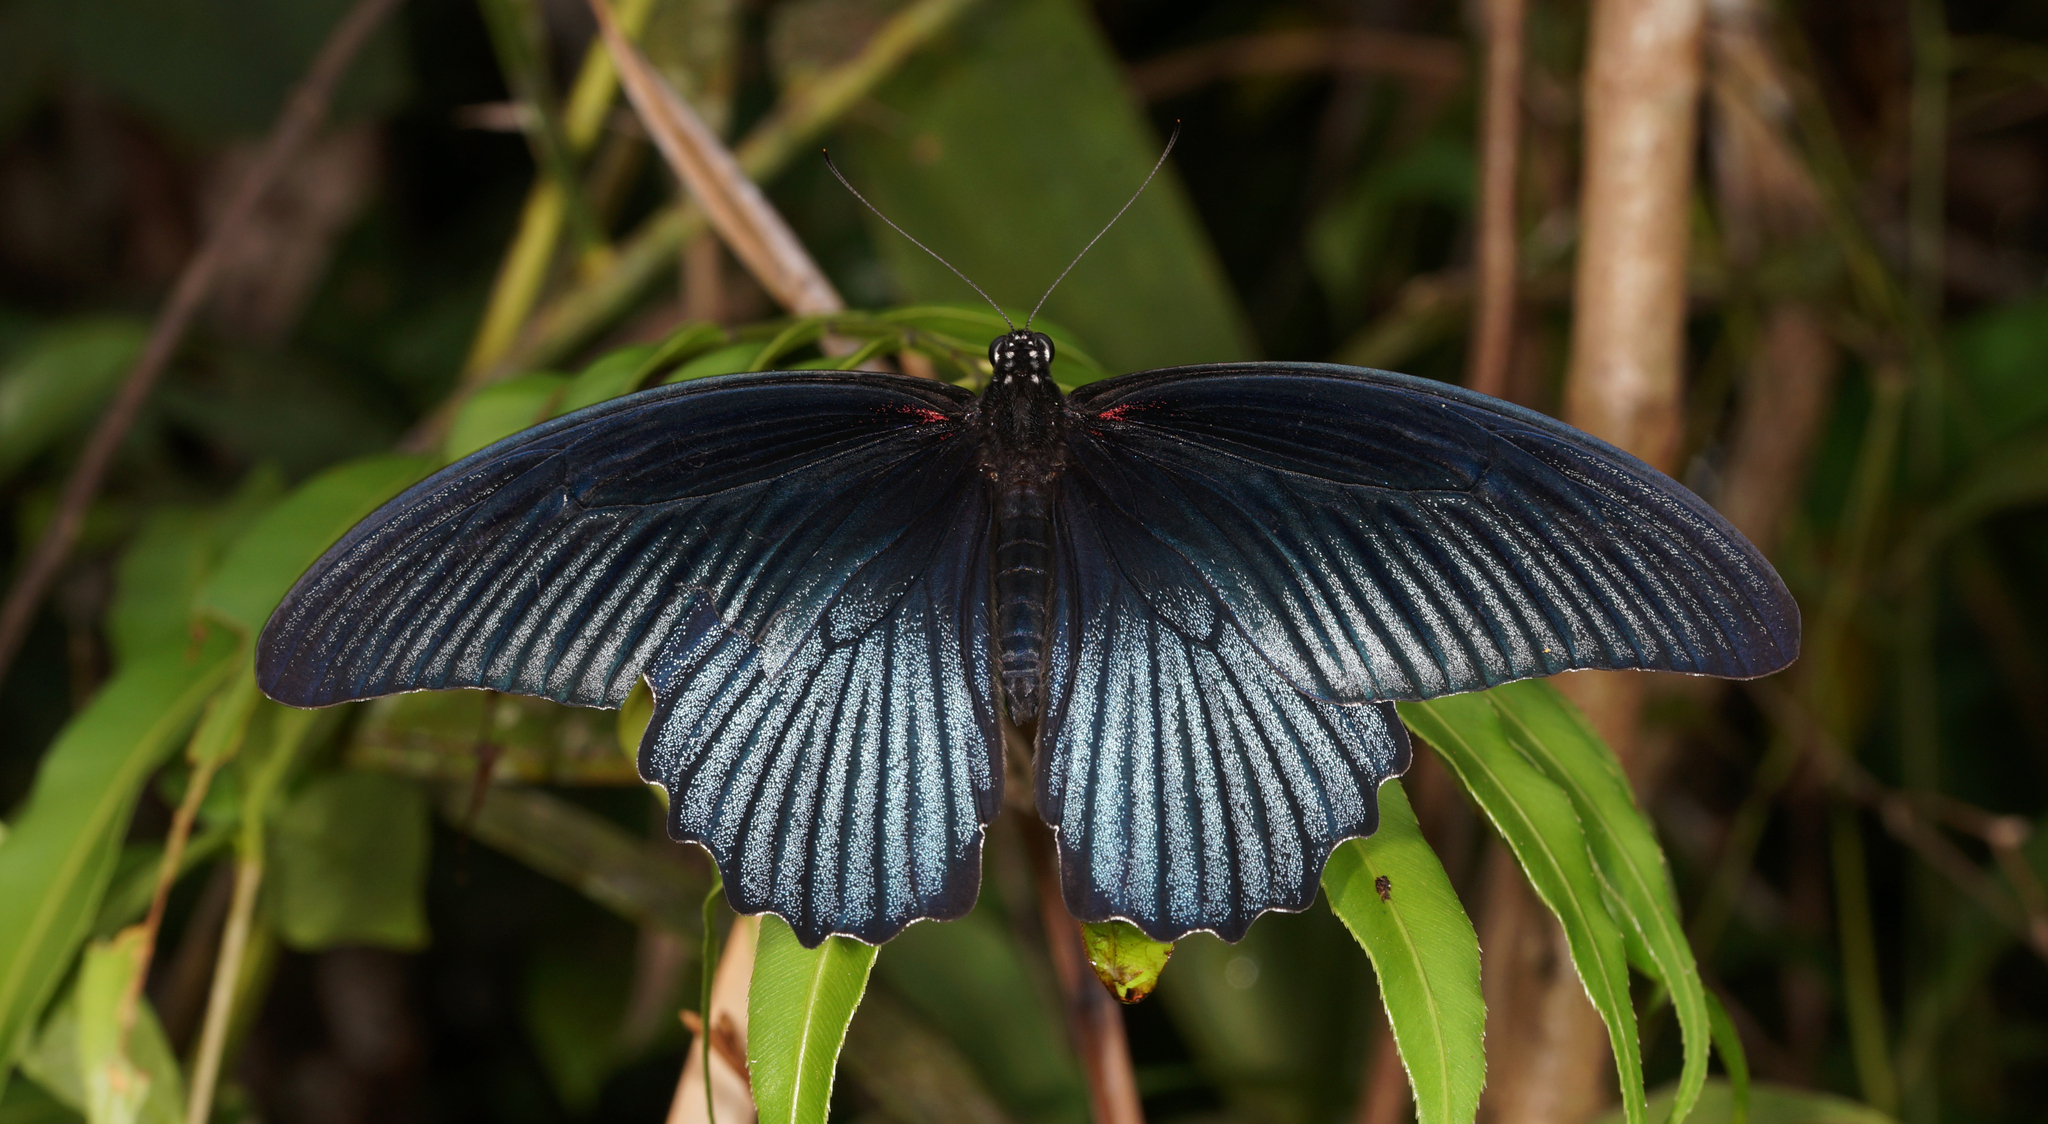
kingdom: Animalia
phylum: Arthropoda
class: Insecta
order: Lepidoptera
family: Papilionidae
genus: Papilio
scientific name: Papilio memnon
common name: Great mormon
